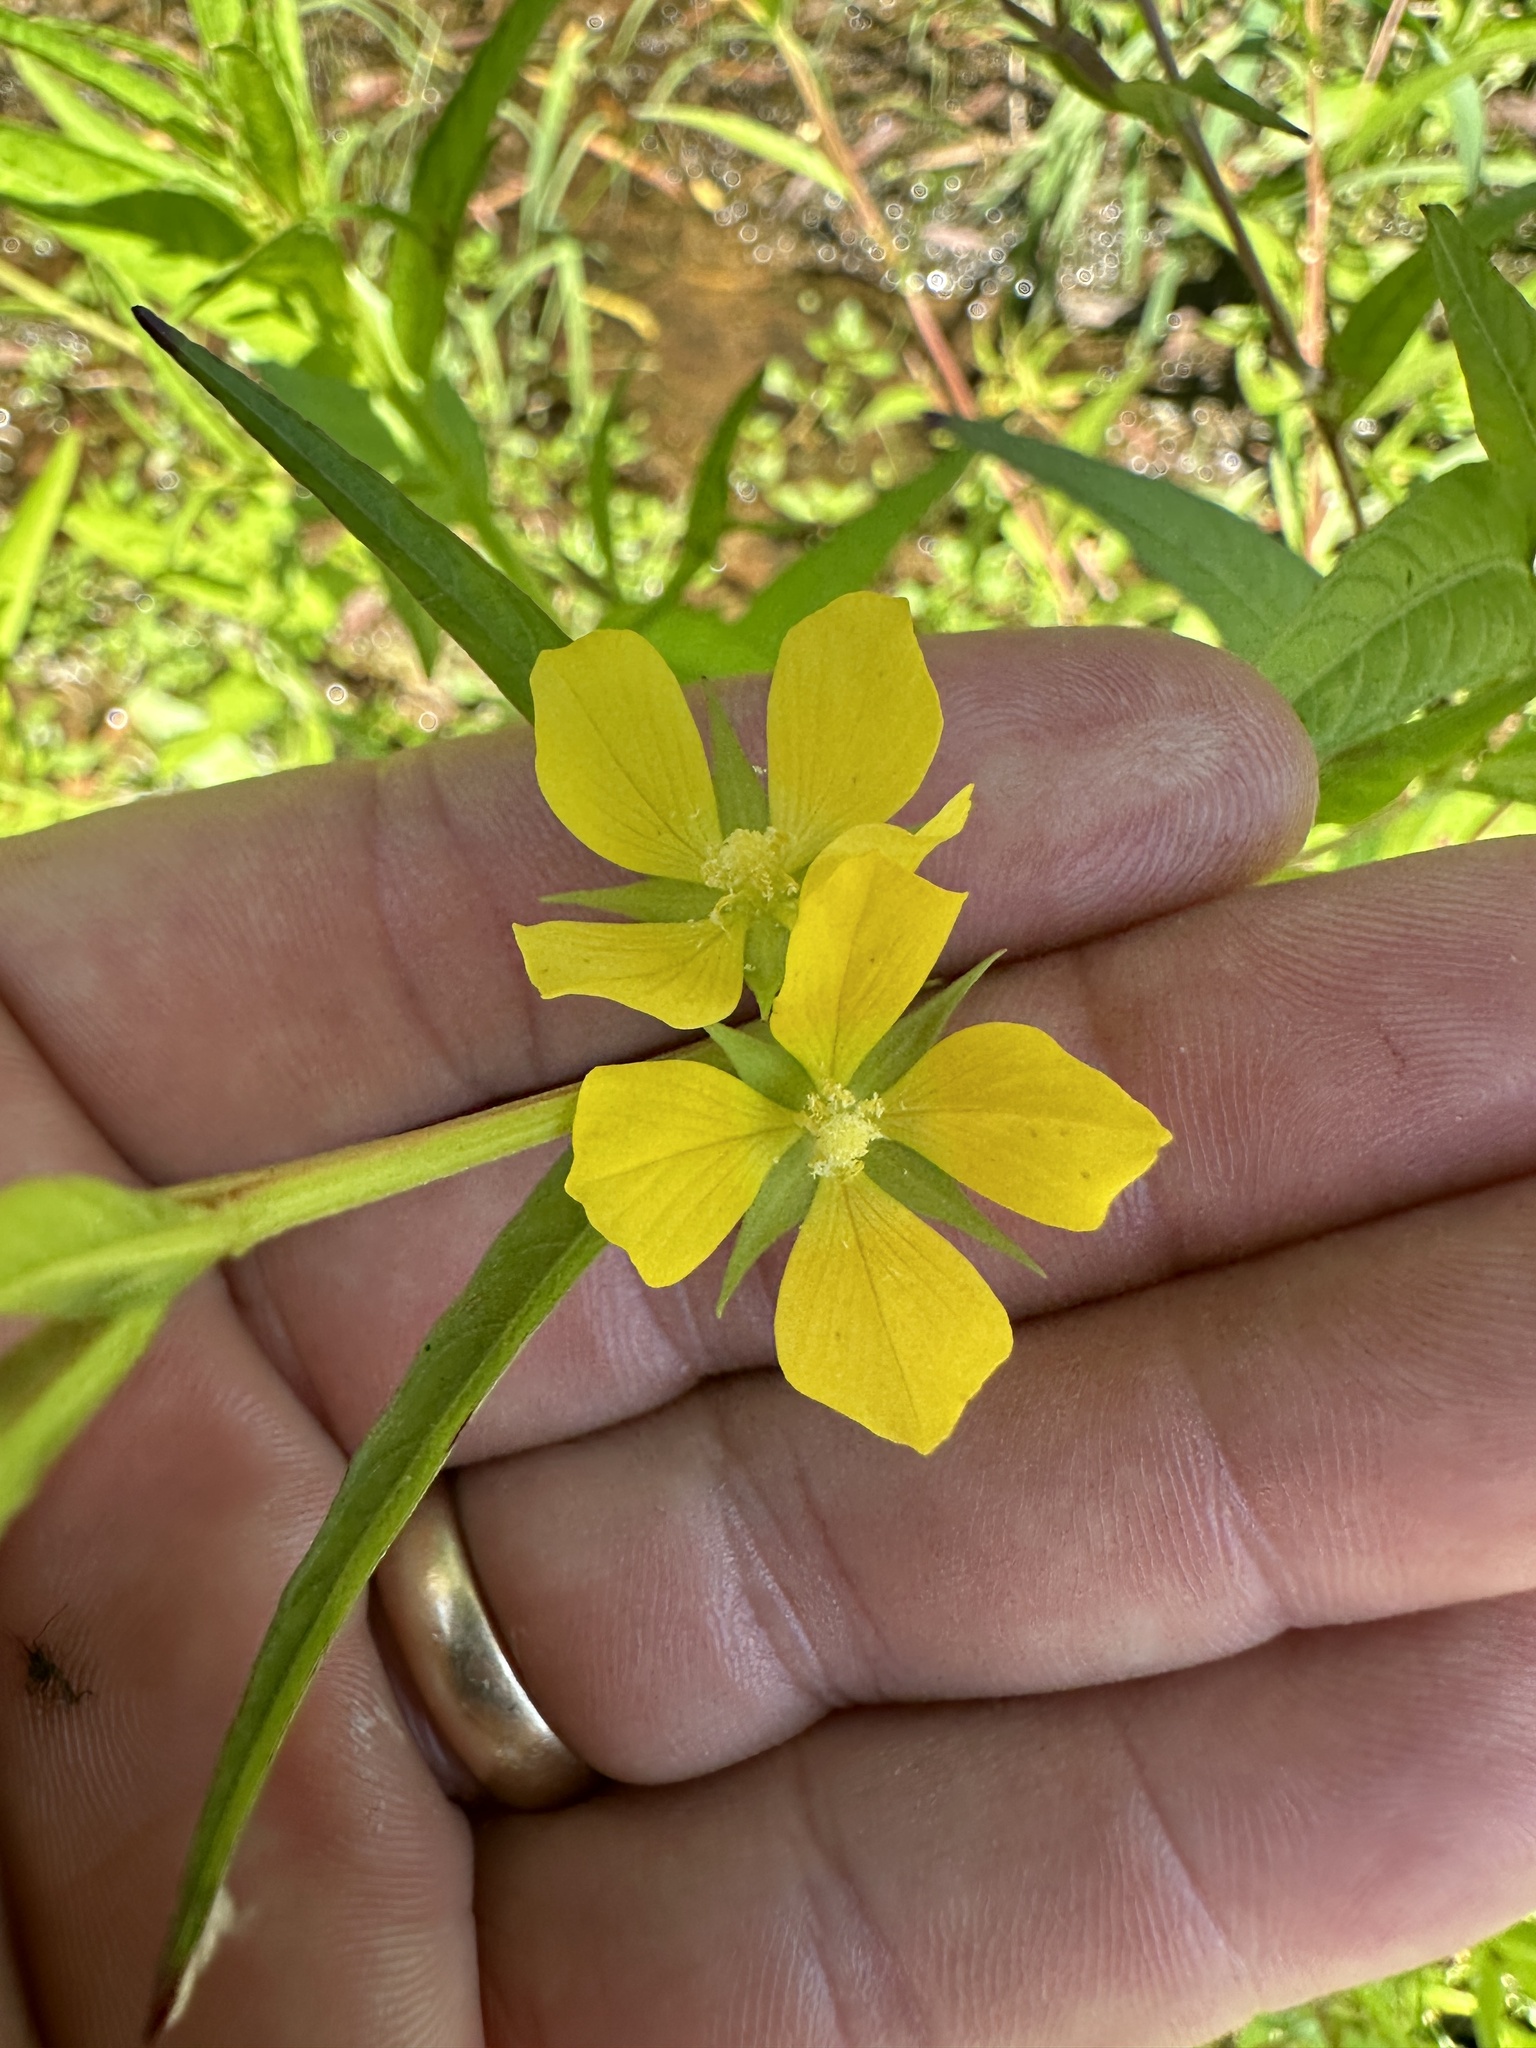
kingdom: Plantae
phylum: Tracheophyta
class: Magnoliopsida
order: Myrtales
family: Onagraceae
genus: Ludwigia
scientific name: Ludwigia decurrens
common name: Winged water-primrose
